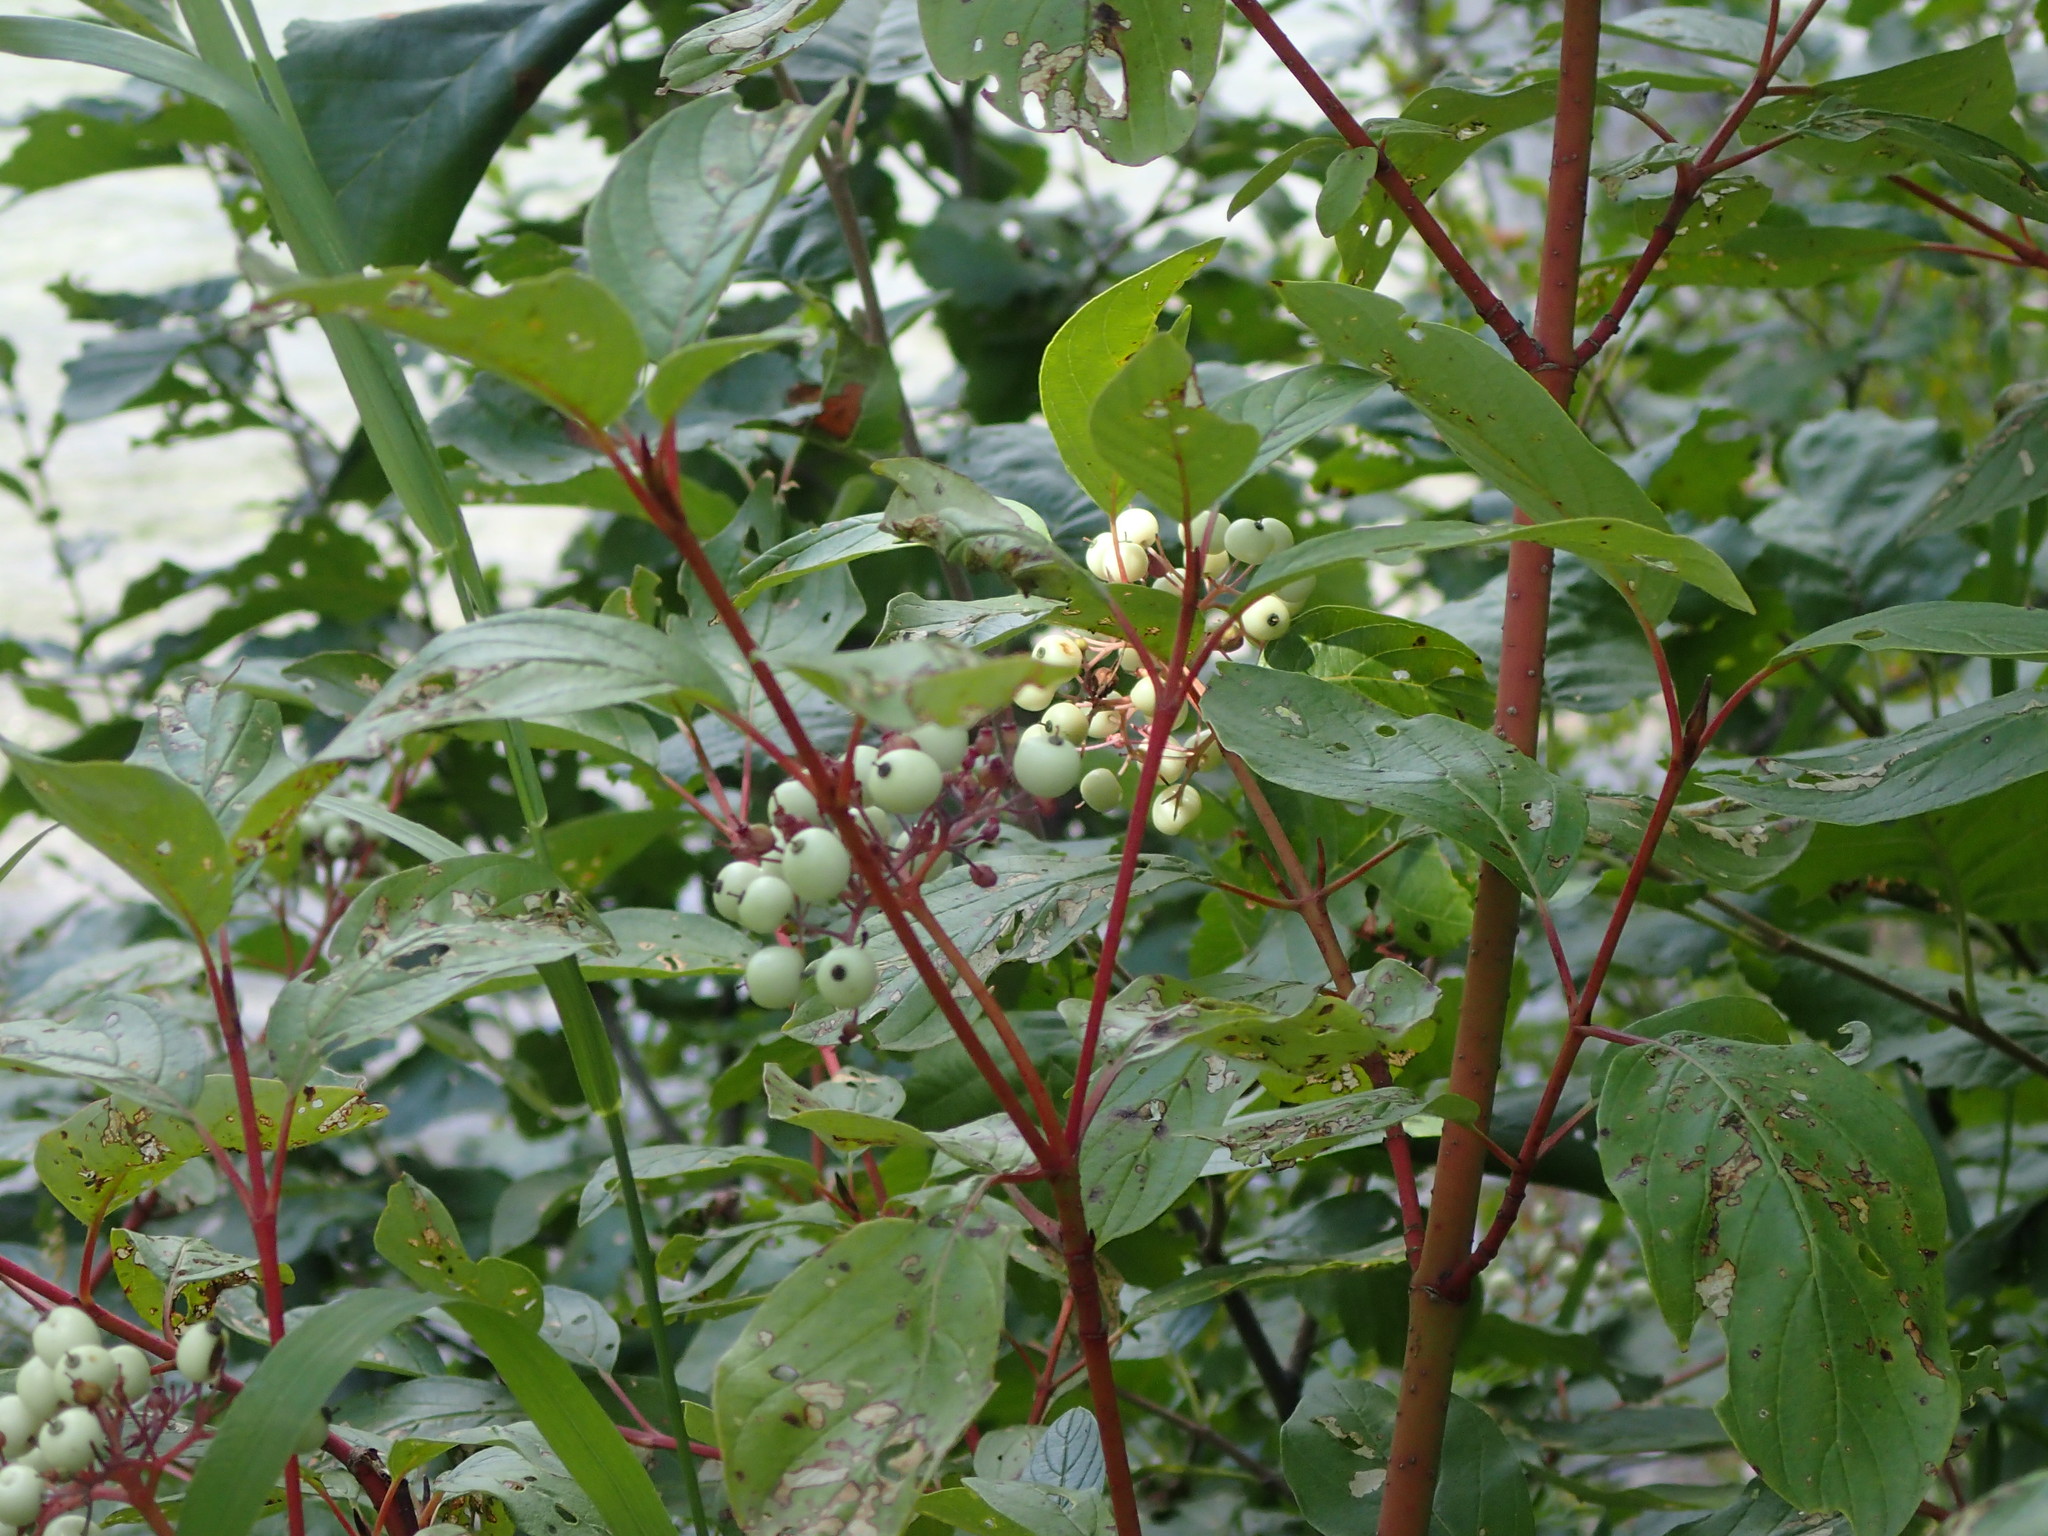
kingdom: Plantae
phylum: Tracheophyta
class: Magnoliopsida
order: Cornales
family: Cornaceae
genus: Cornus
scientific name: Cornus sericea
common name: Red-osier dogwood
